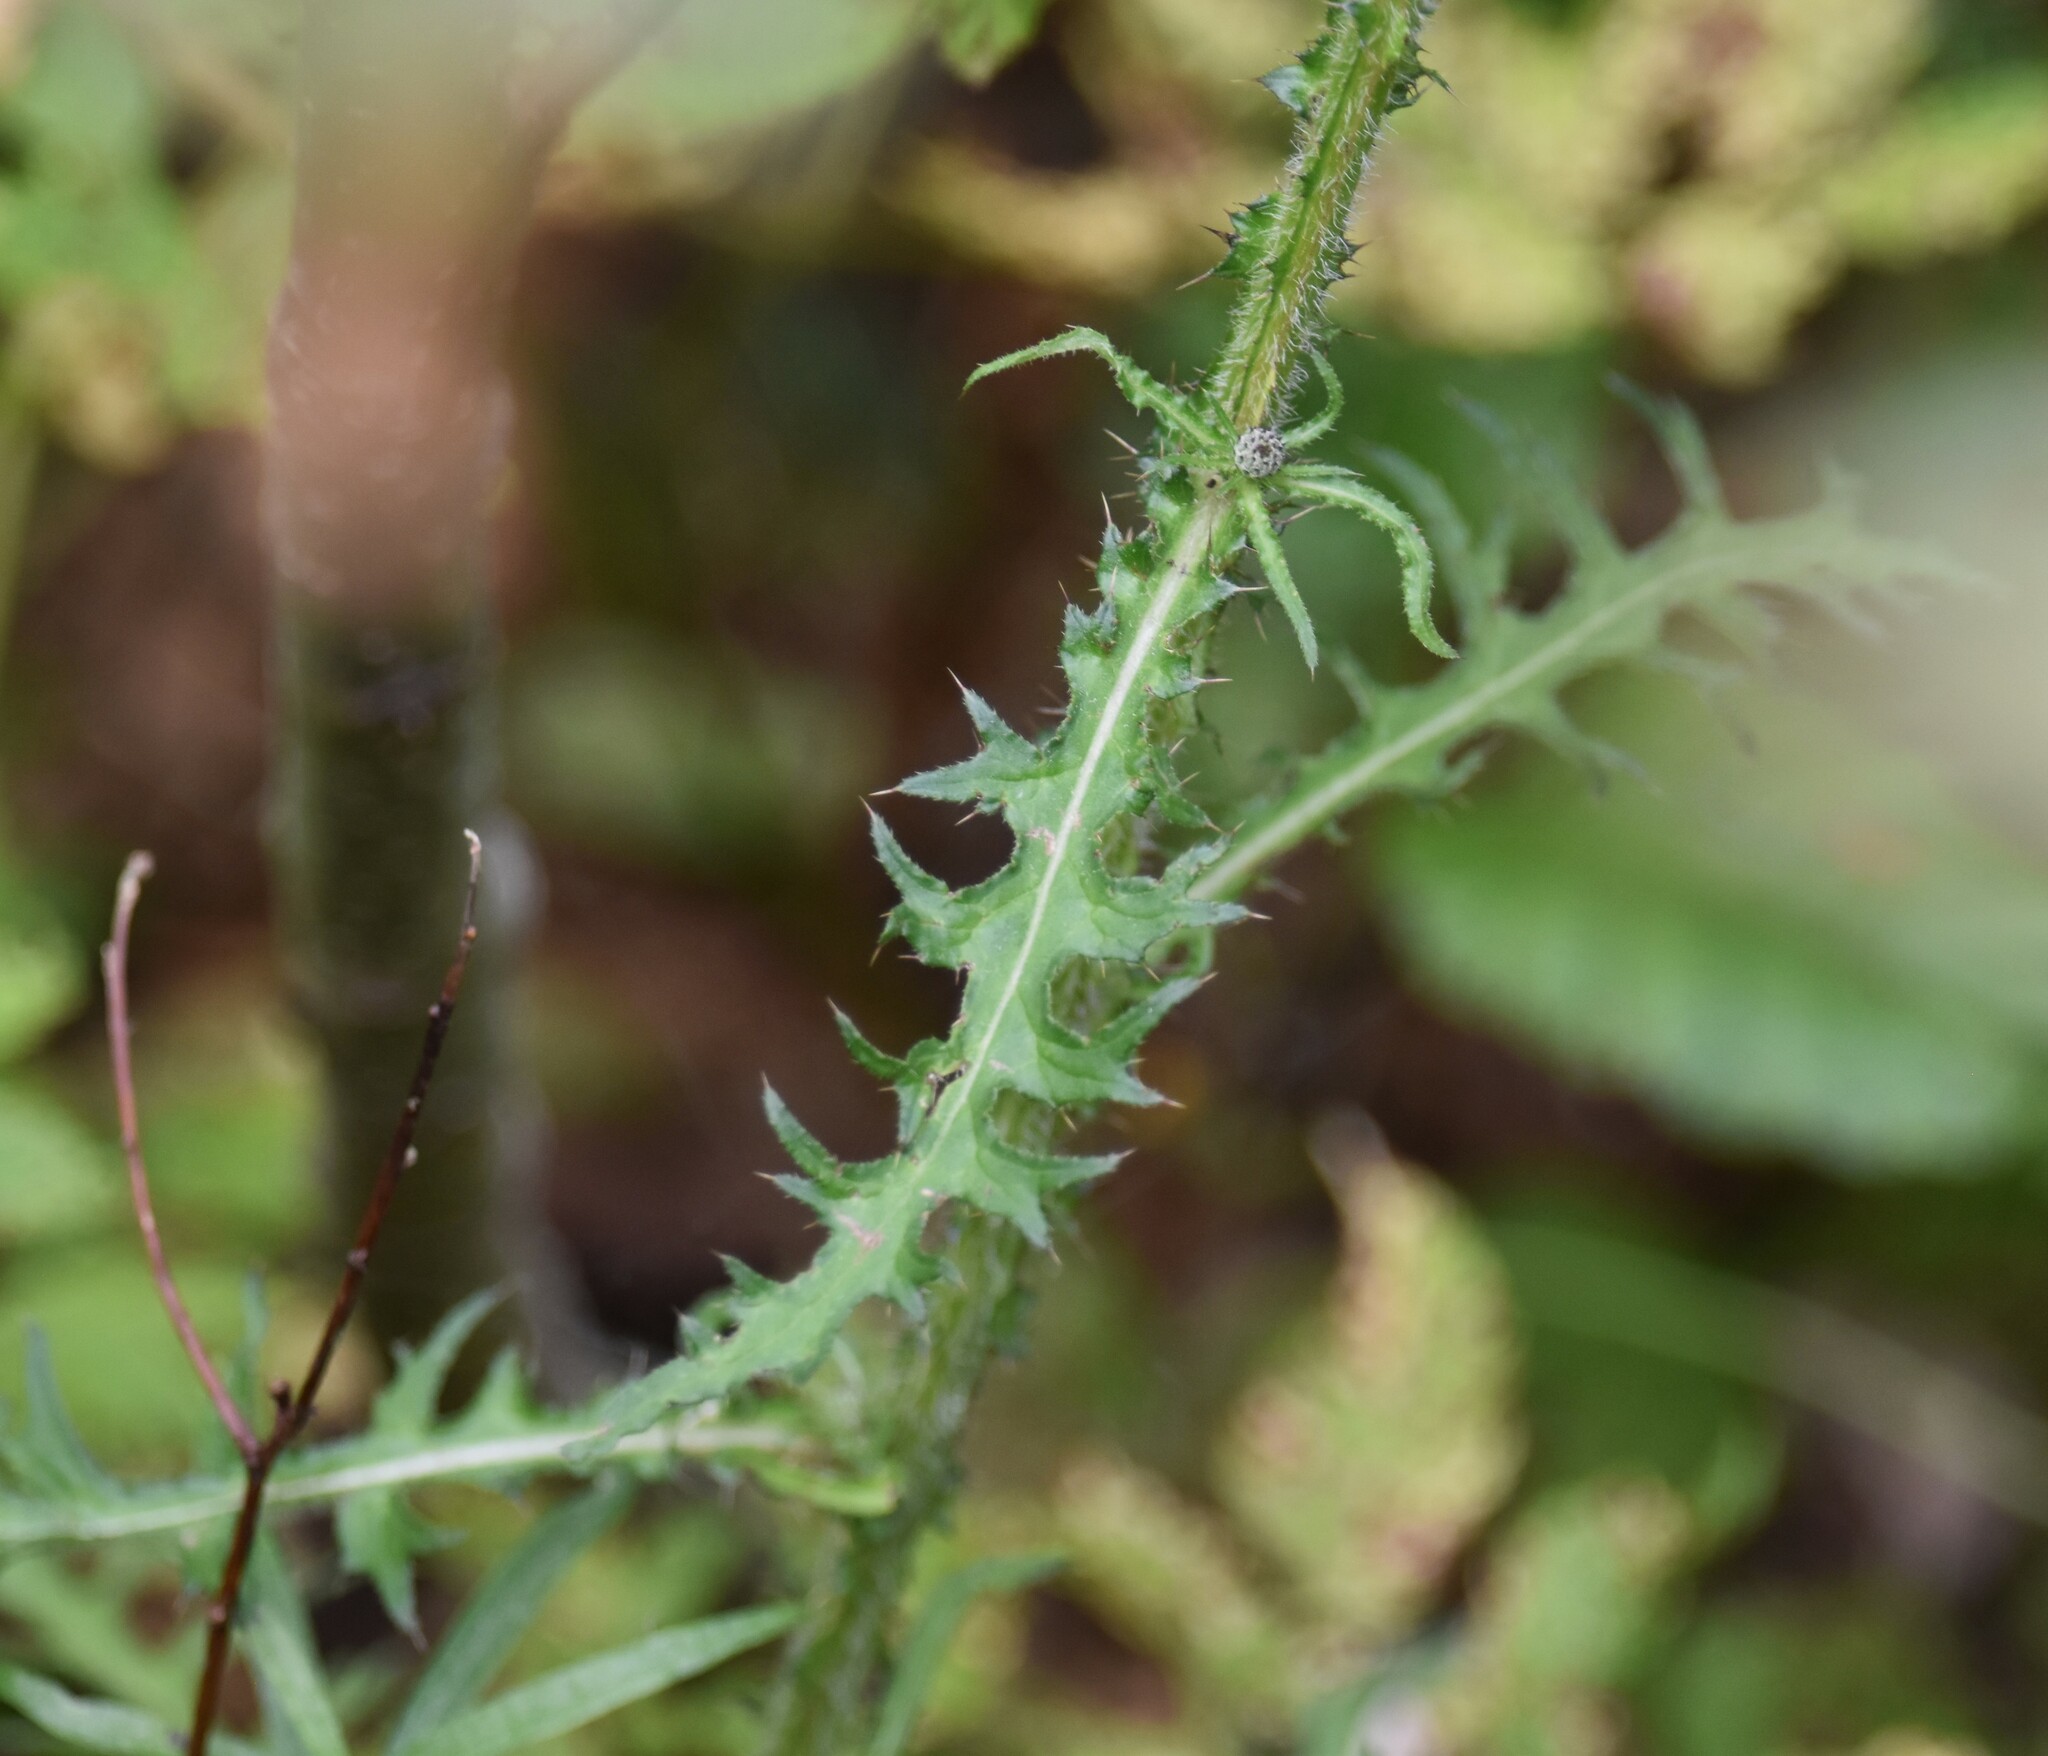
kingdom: Plantae
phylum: Tracheophyta
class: Magnoliopsida
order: Asterales
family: Asteraceae
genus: Cirsium
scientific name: Cirsium palustre
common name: Marsh thistle
